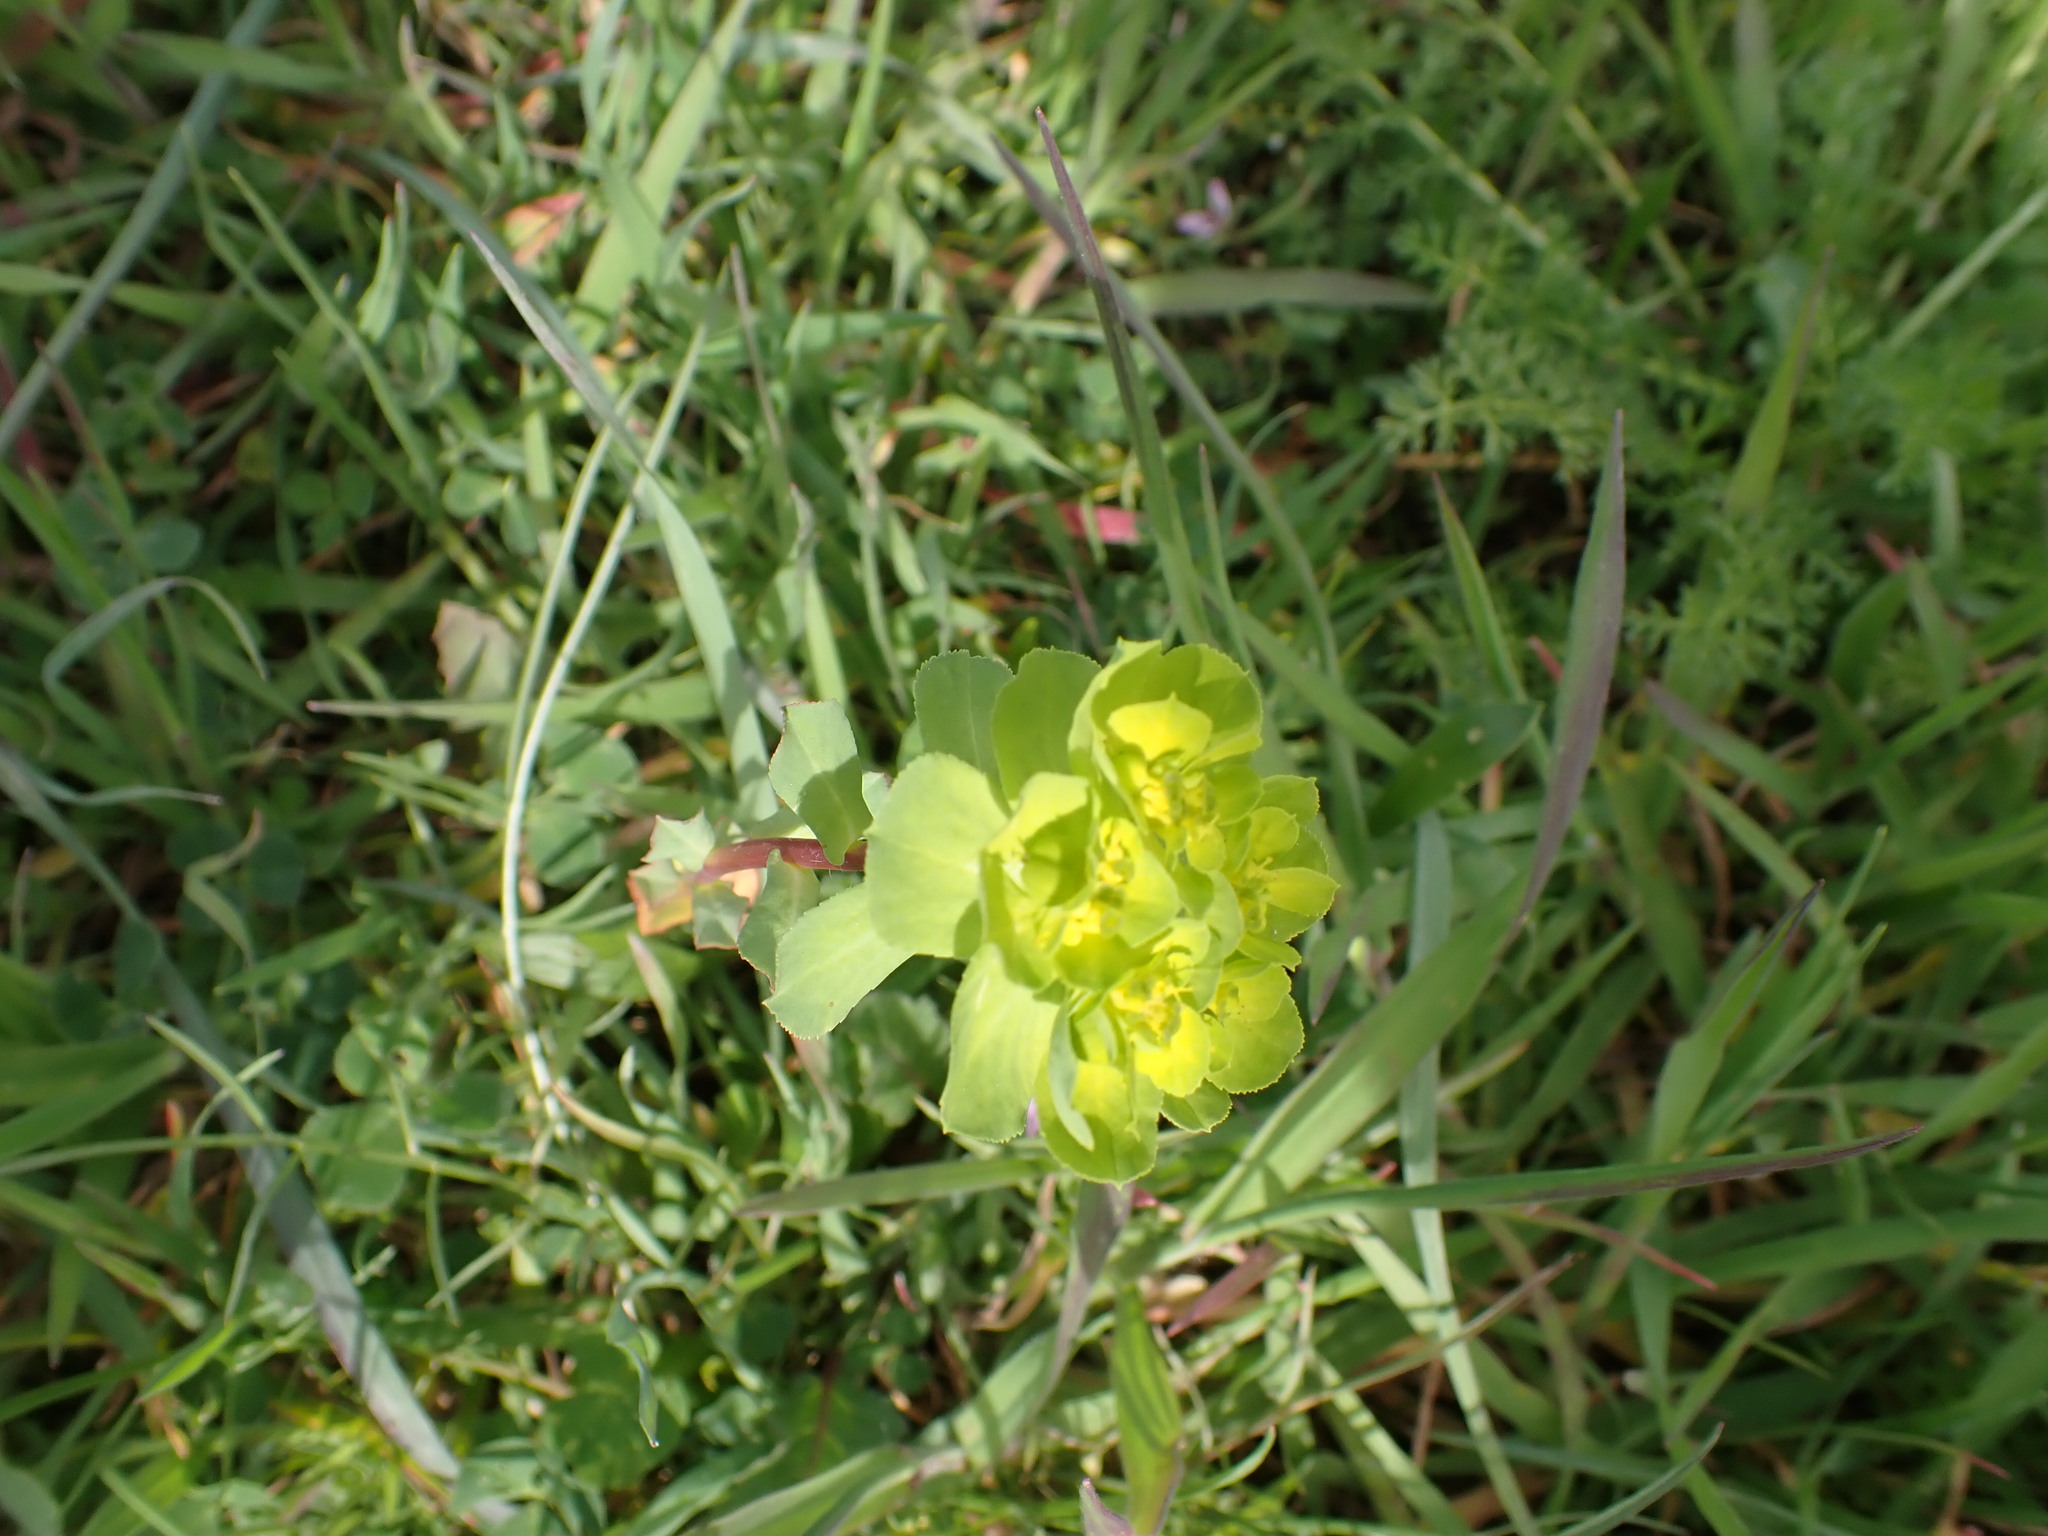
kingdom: Plantae
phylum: Tracheophyta
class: Magnoliopsida
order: Malpighiales
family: Euphorbiaceae
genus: Euphorbia
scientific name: Euphorbia helioscopia
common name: Sun spurge
